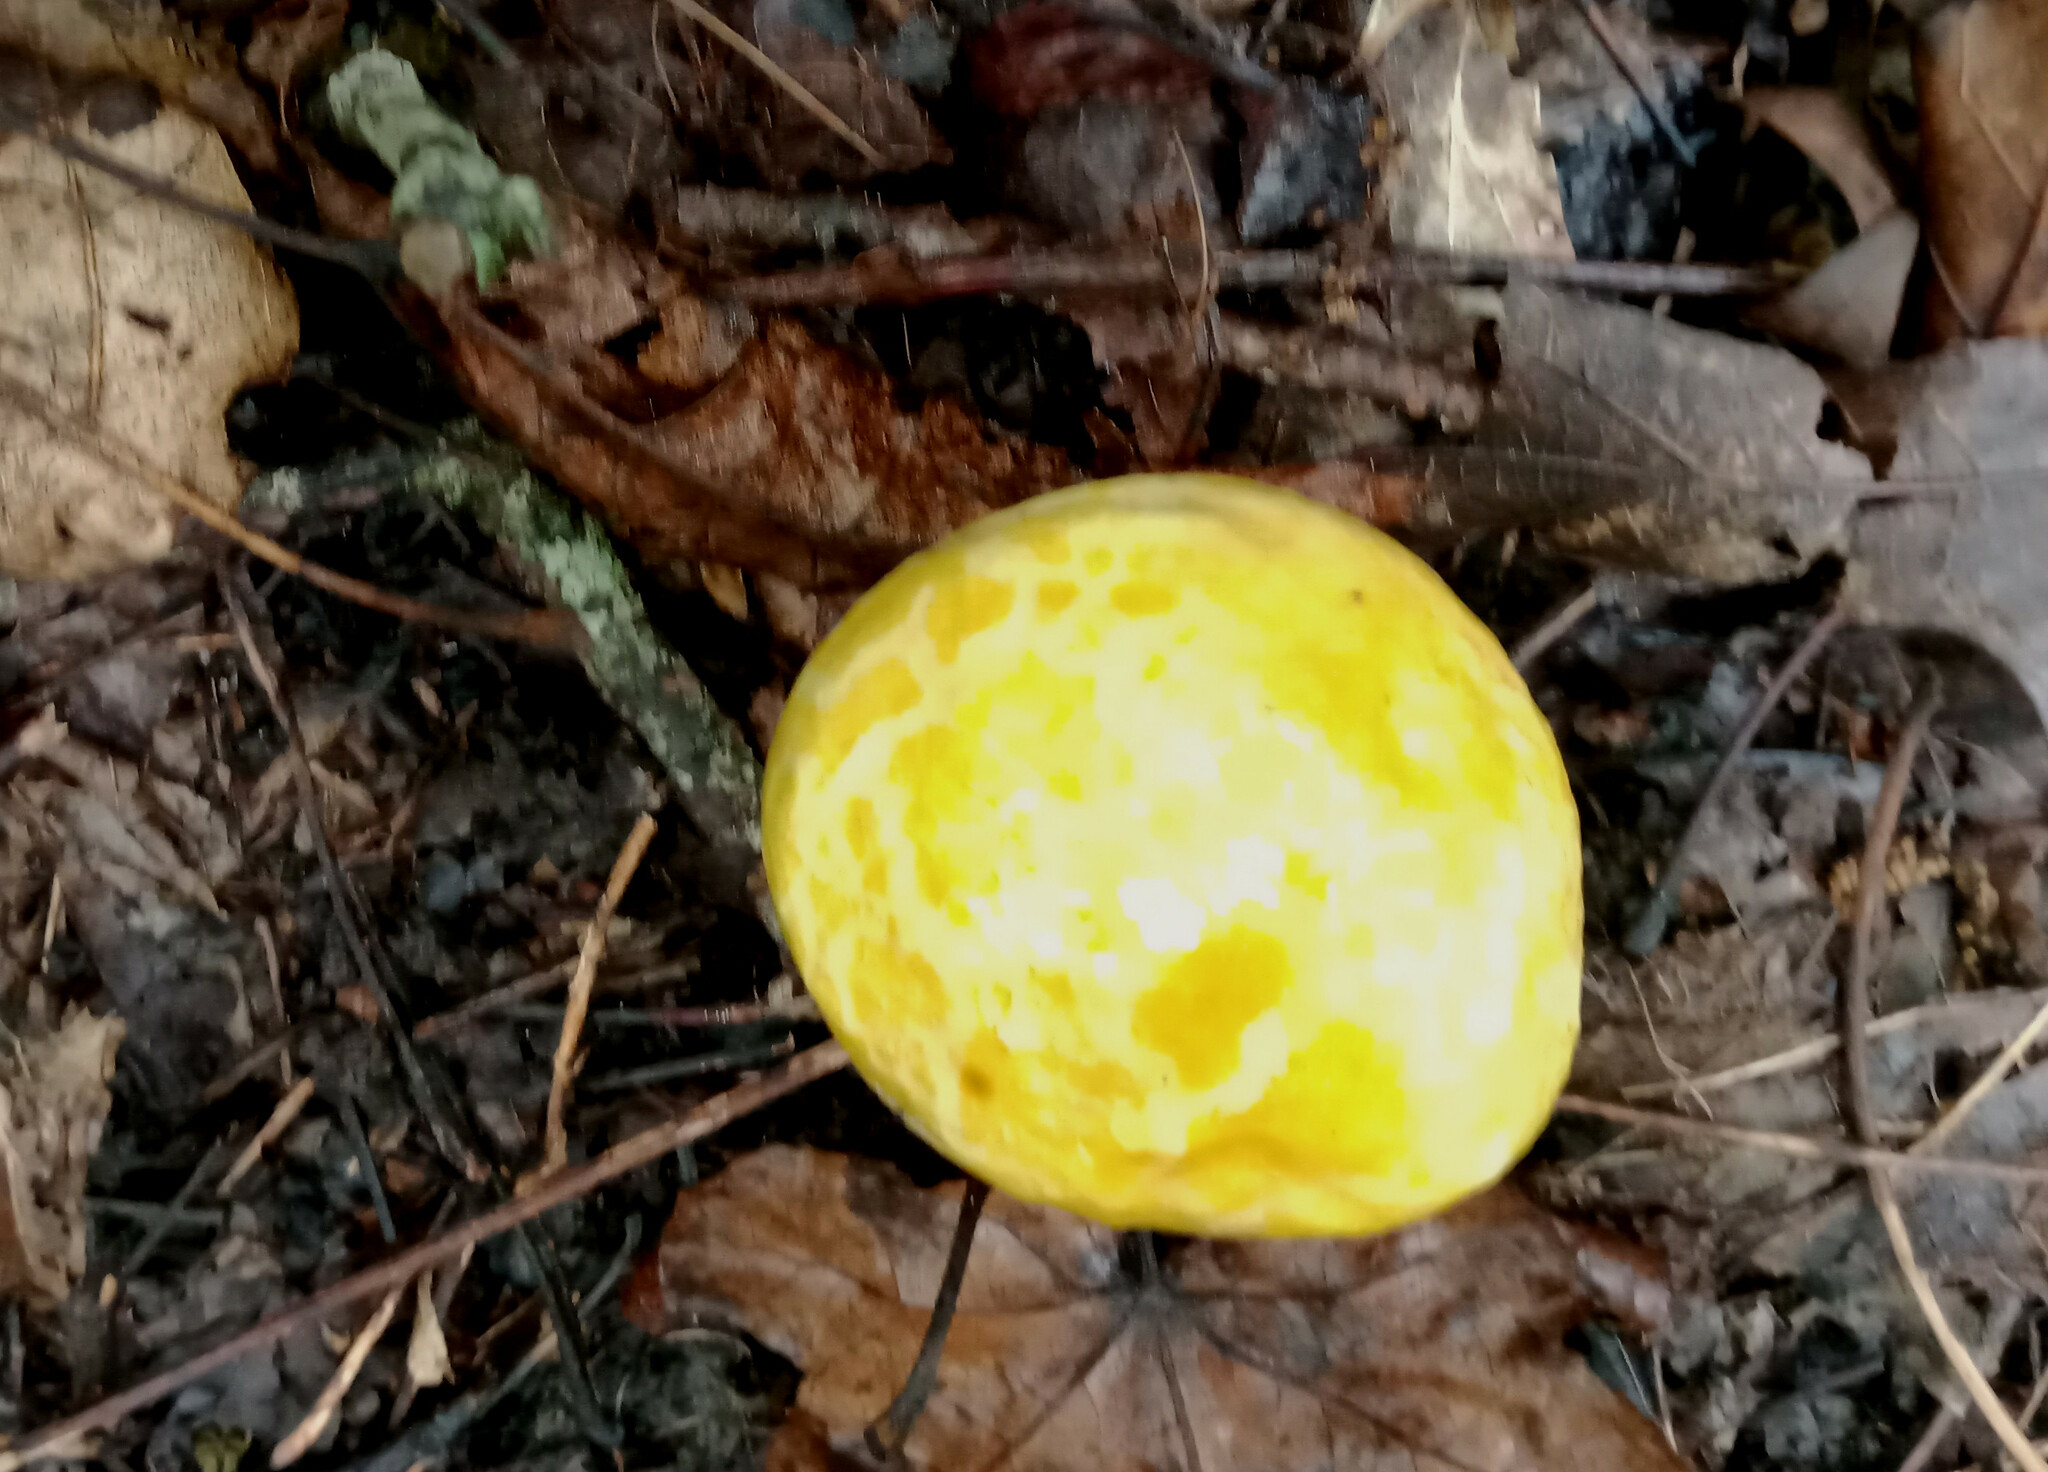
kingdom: Fungi
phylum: Basidiomycota
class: Agaricomycetes
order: Boletales
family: Boletaceae
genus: Pulveroboletus
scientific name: Pulveroboletus curtisii
